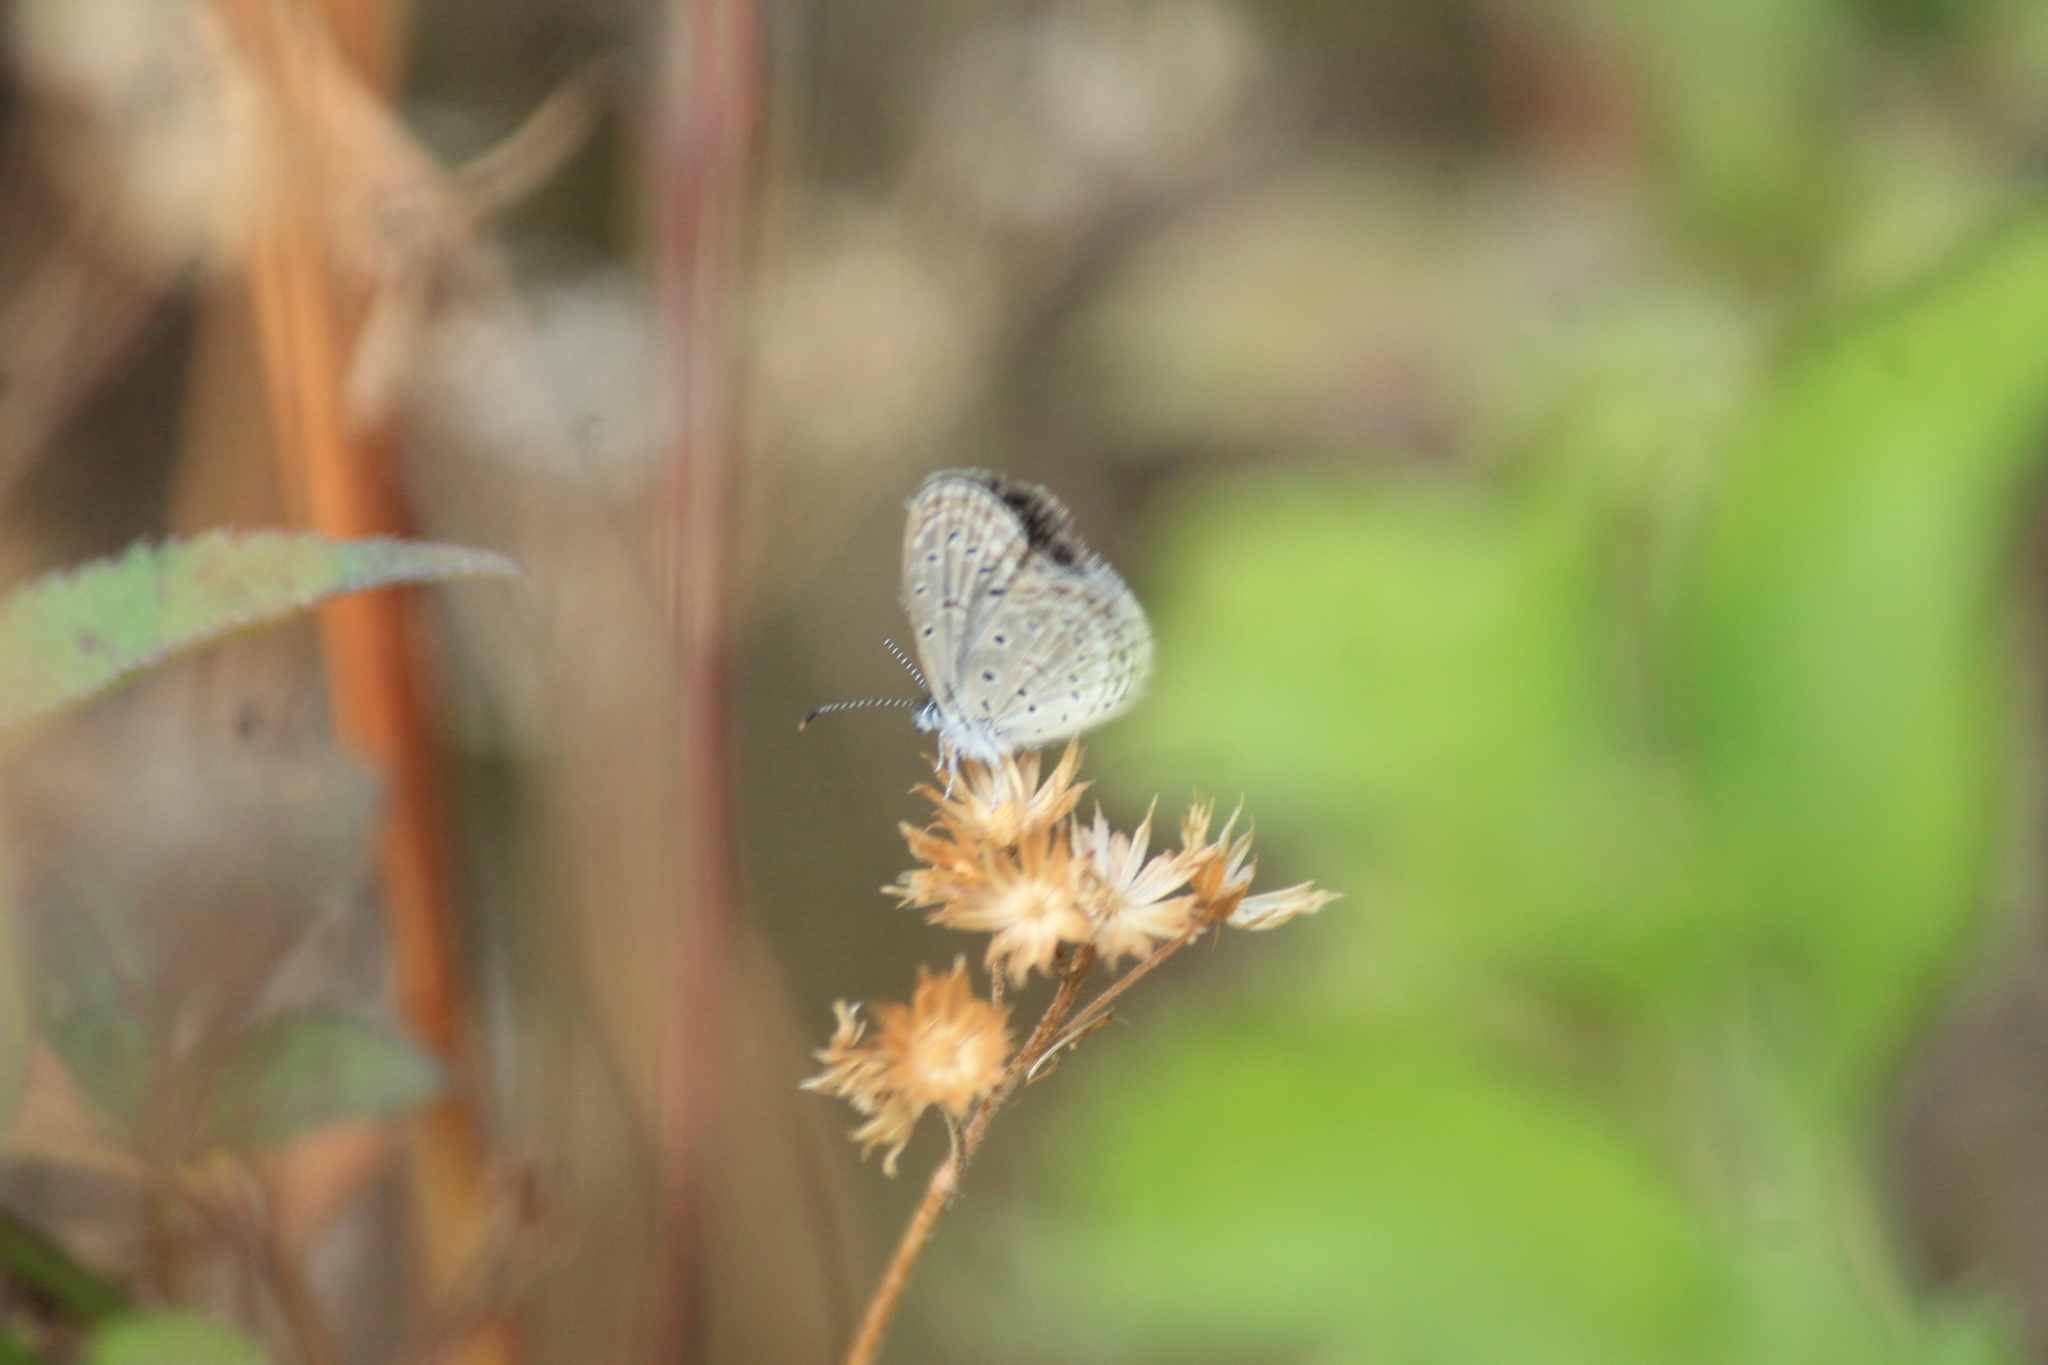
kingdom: Animalia
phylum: Arthropoda
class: Insecta
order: Lepidoptera
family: Lycaenidae
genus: Zizula
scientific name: Zizula hylax
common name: Gaika blue
